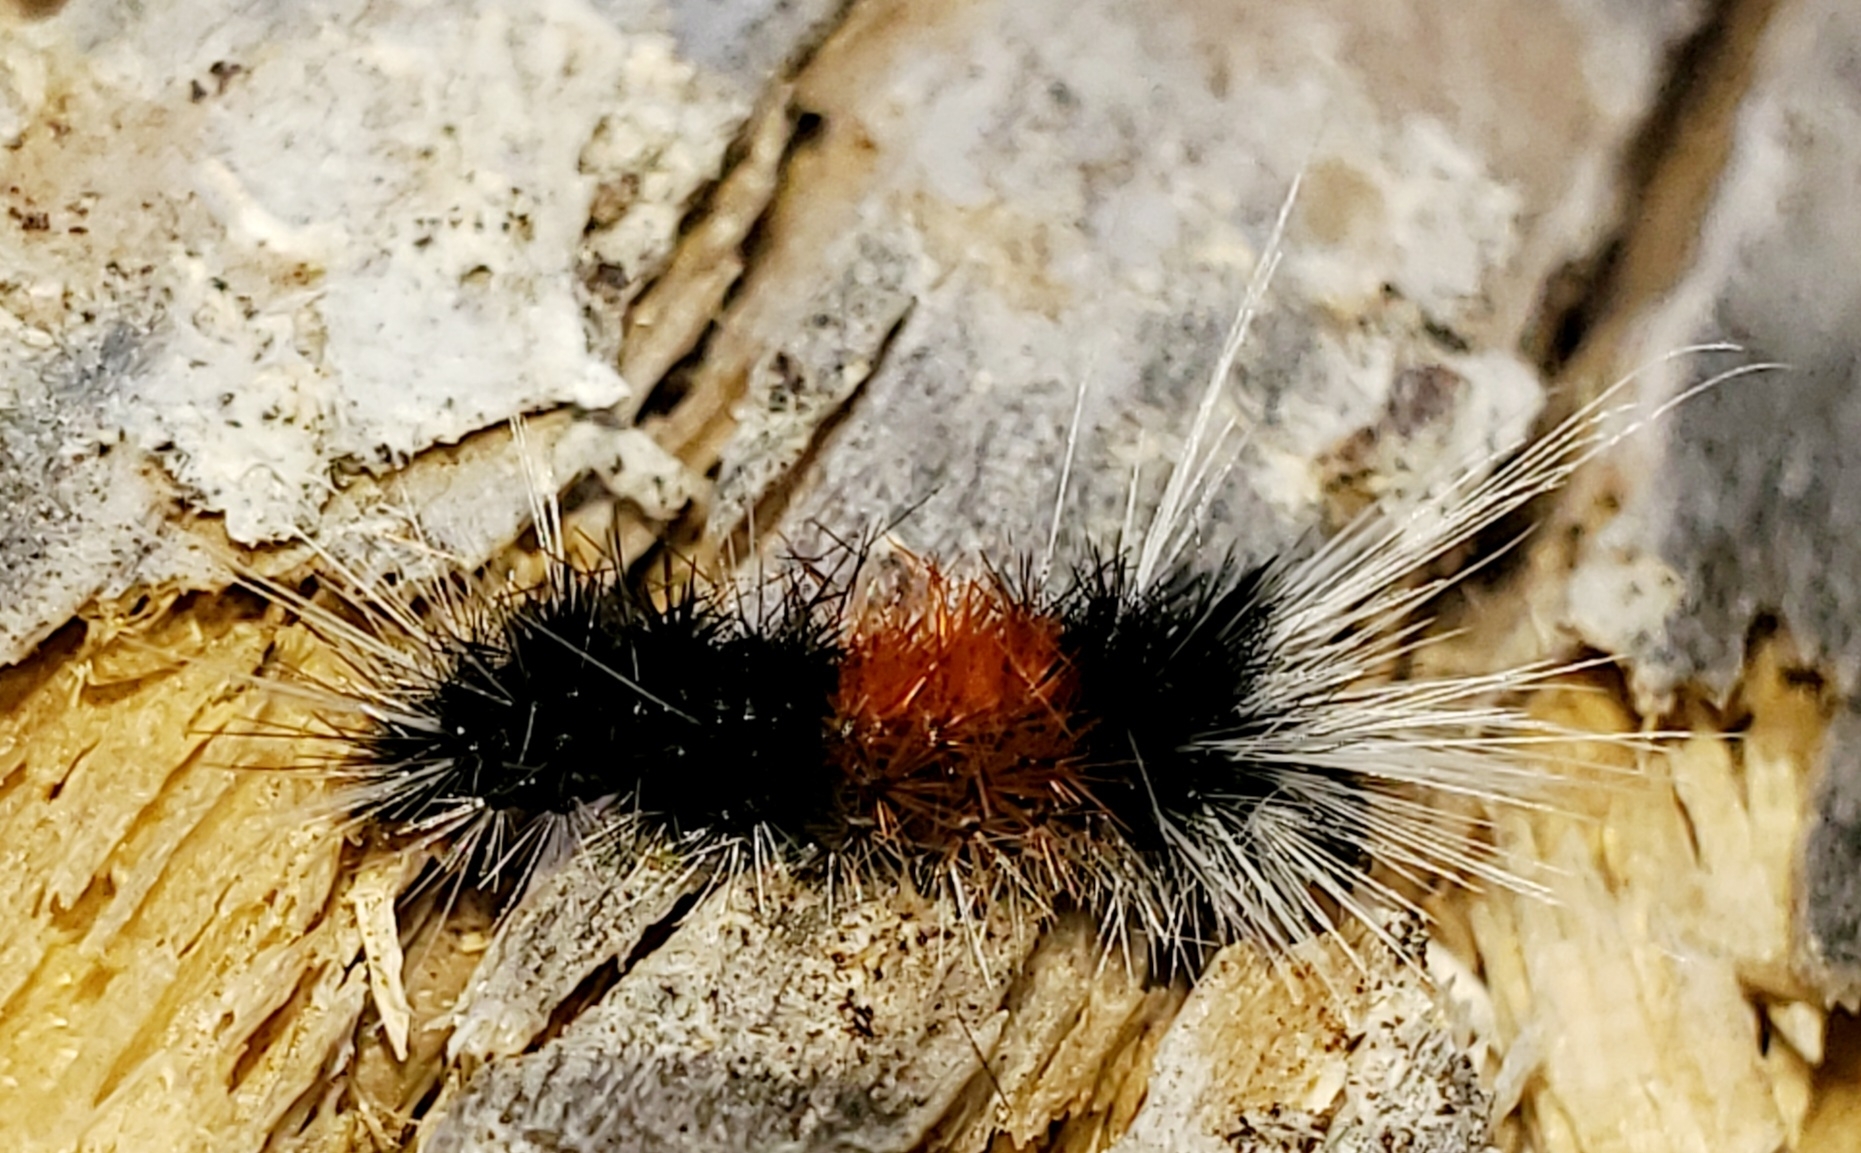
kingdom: Animalia
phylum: Arthropoda
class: Insecta
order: Lepidoptera
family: Erebidae
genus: Lophocampa
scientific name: Lophocampa maculata
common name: Spotted tussock moth
